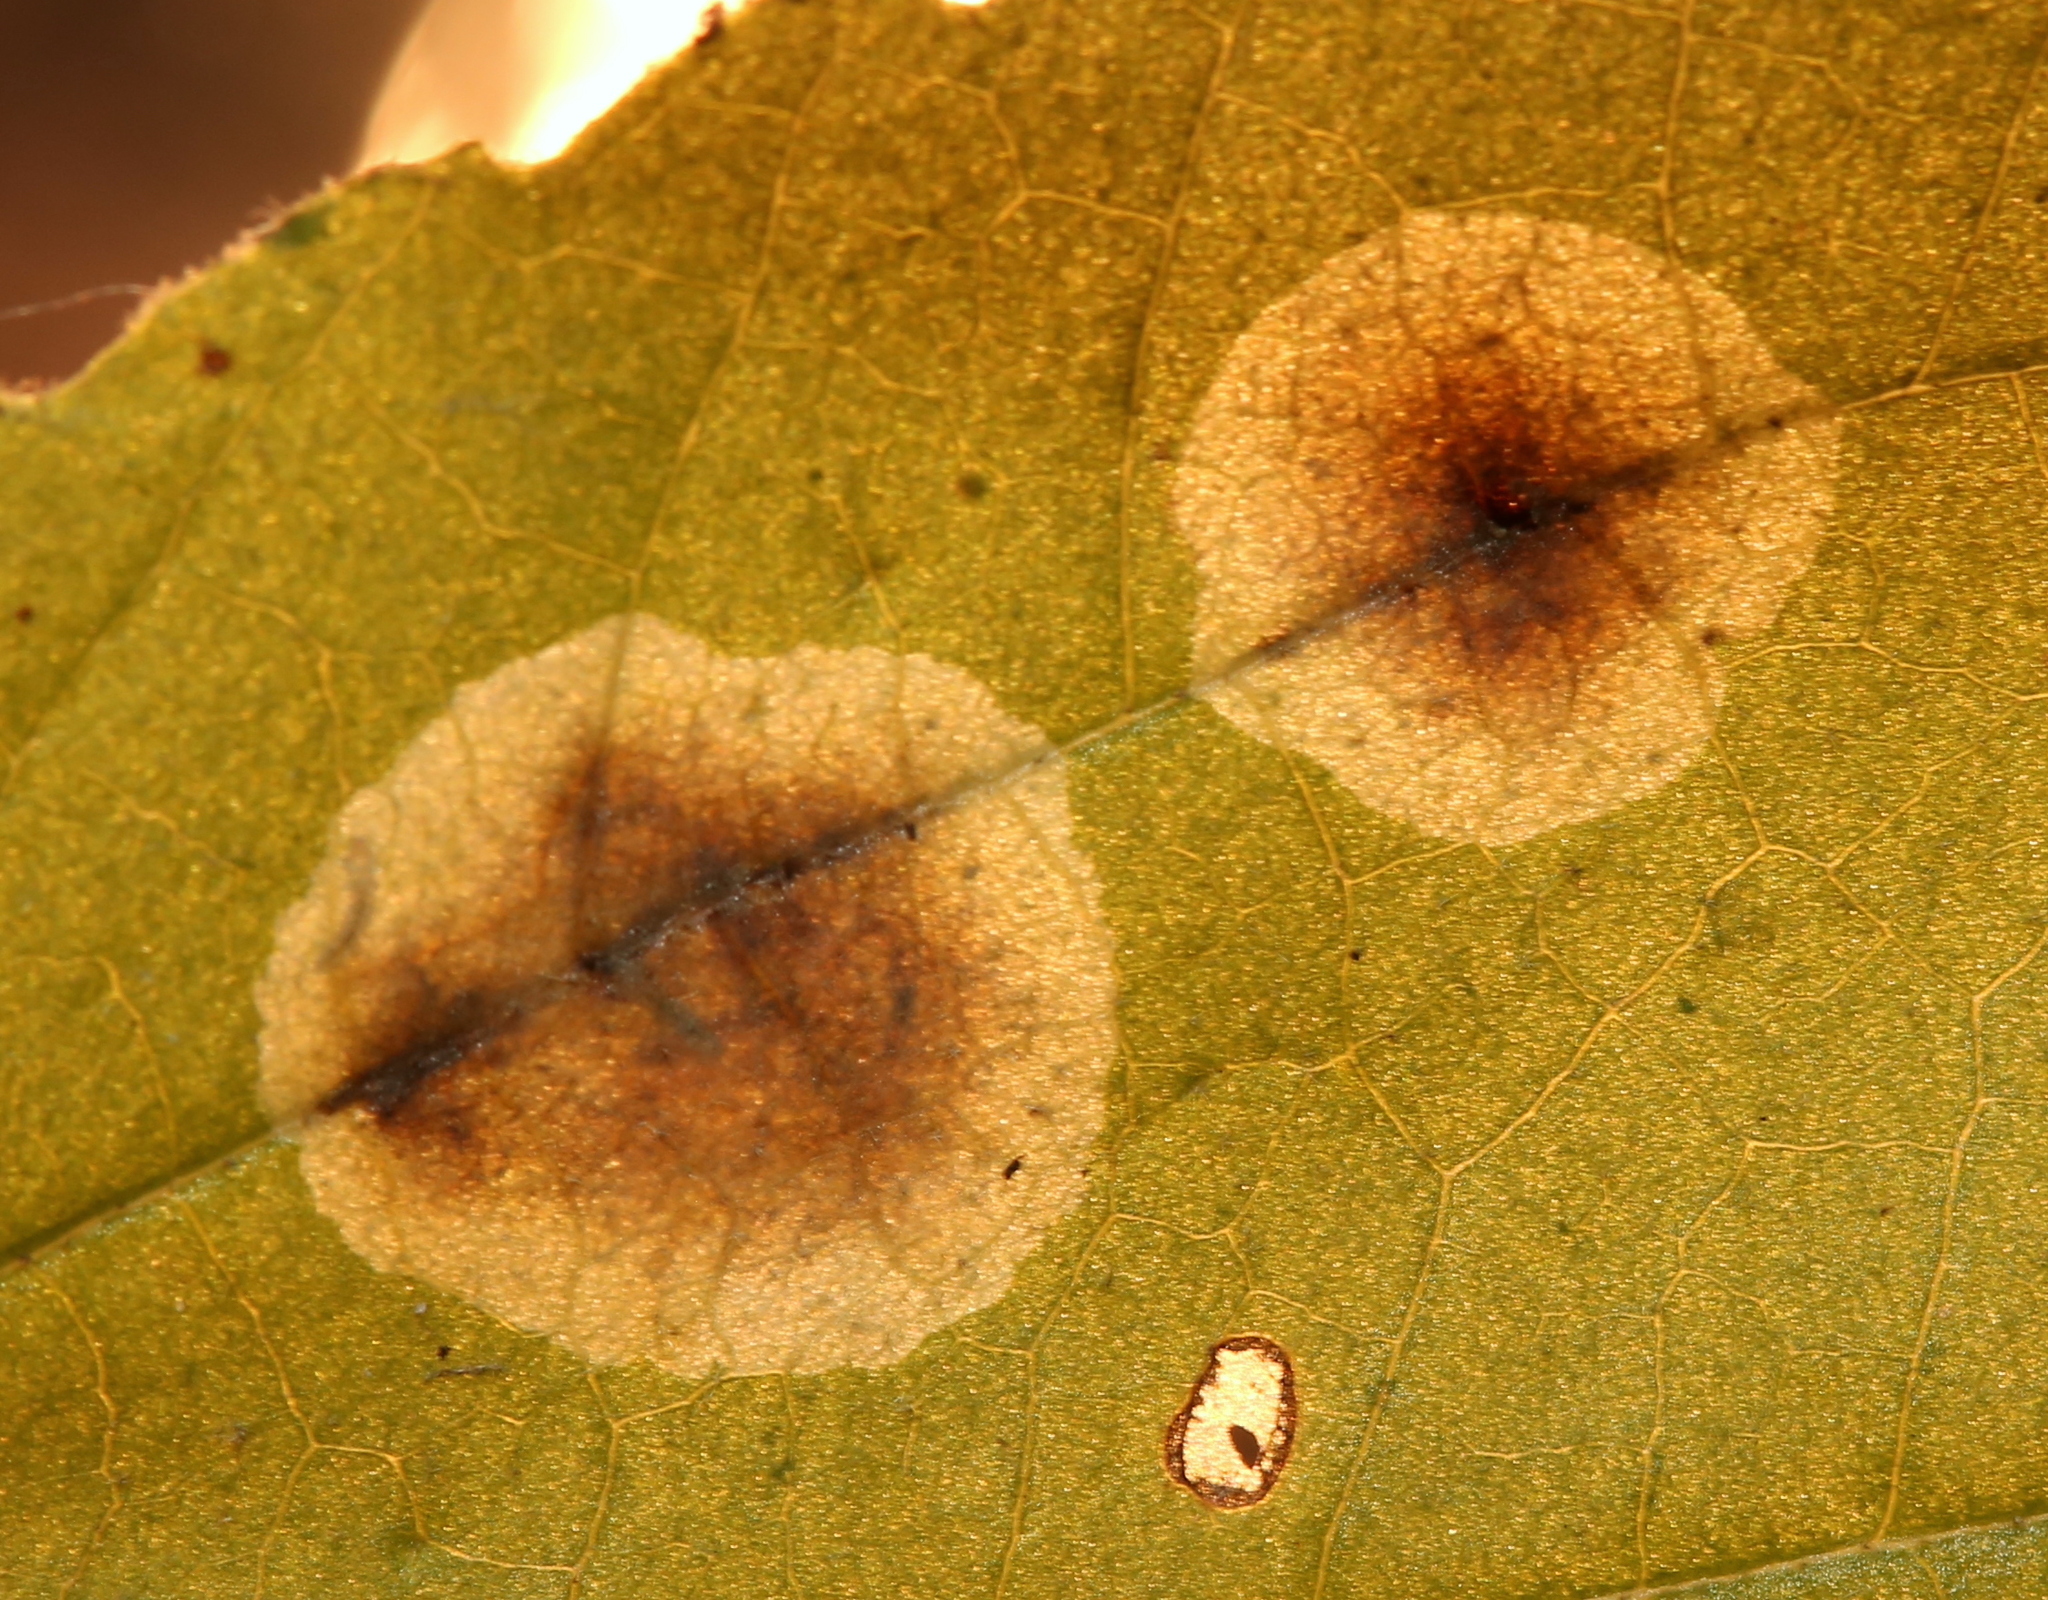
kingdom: Animalia
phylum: Arthropoda
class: Insecta
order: Lepidoptera
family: Gracillariidae
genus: Cameraria
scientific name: Cameraria hamameliella
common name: Witchhazel leafminer
